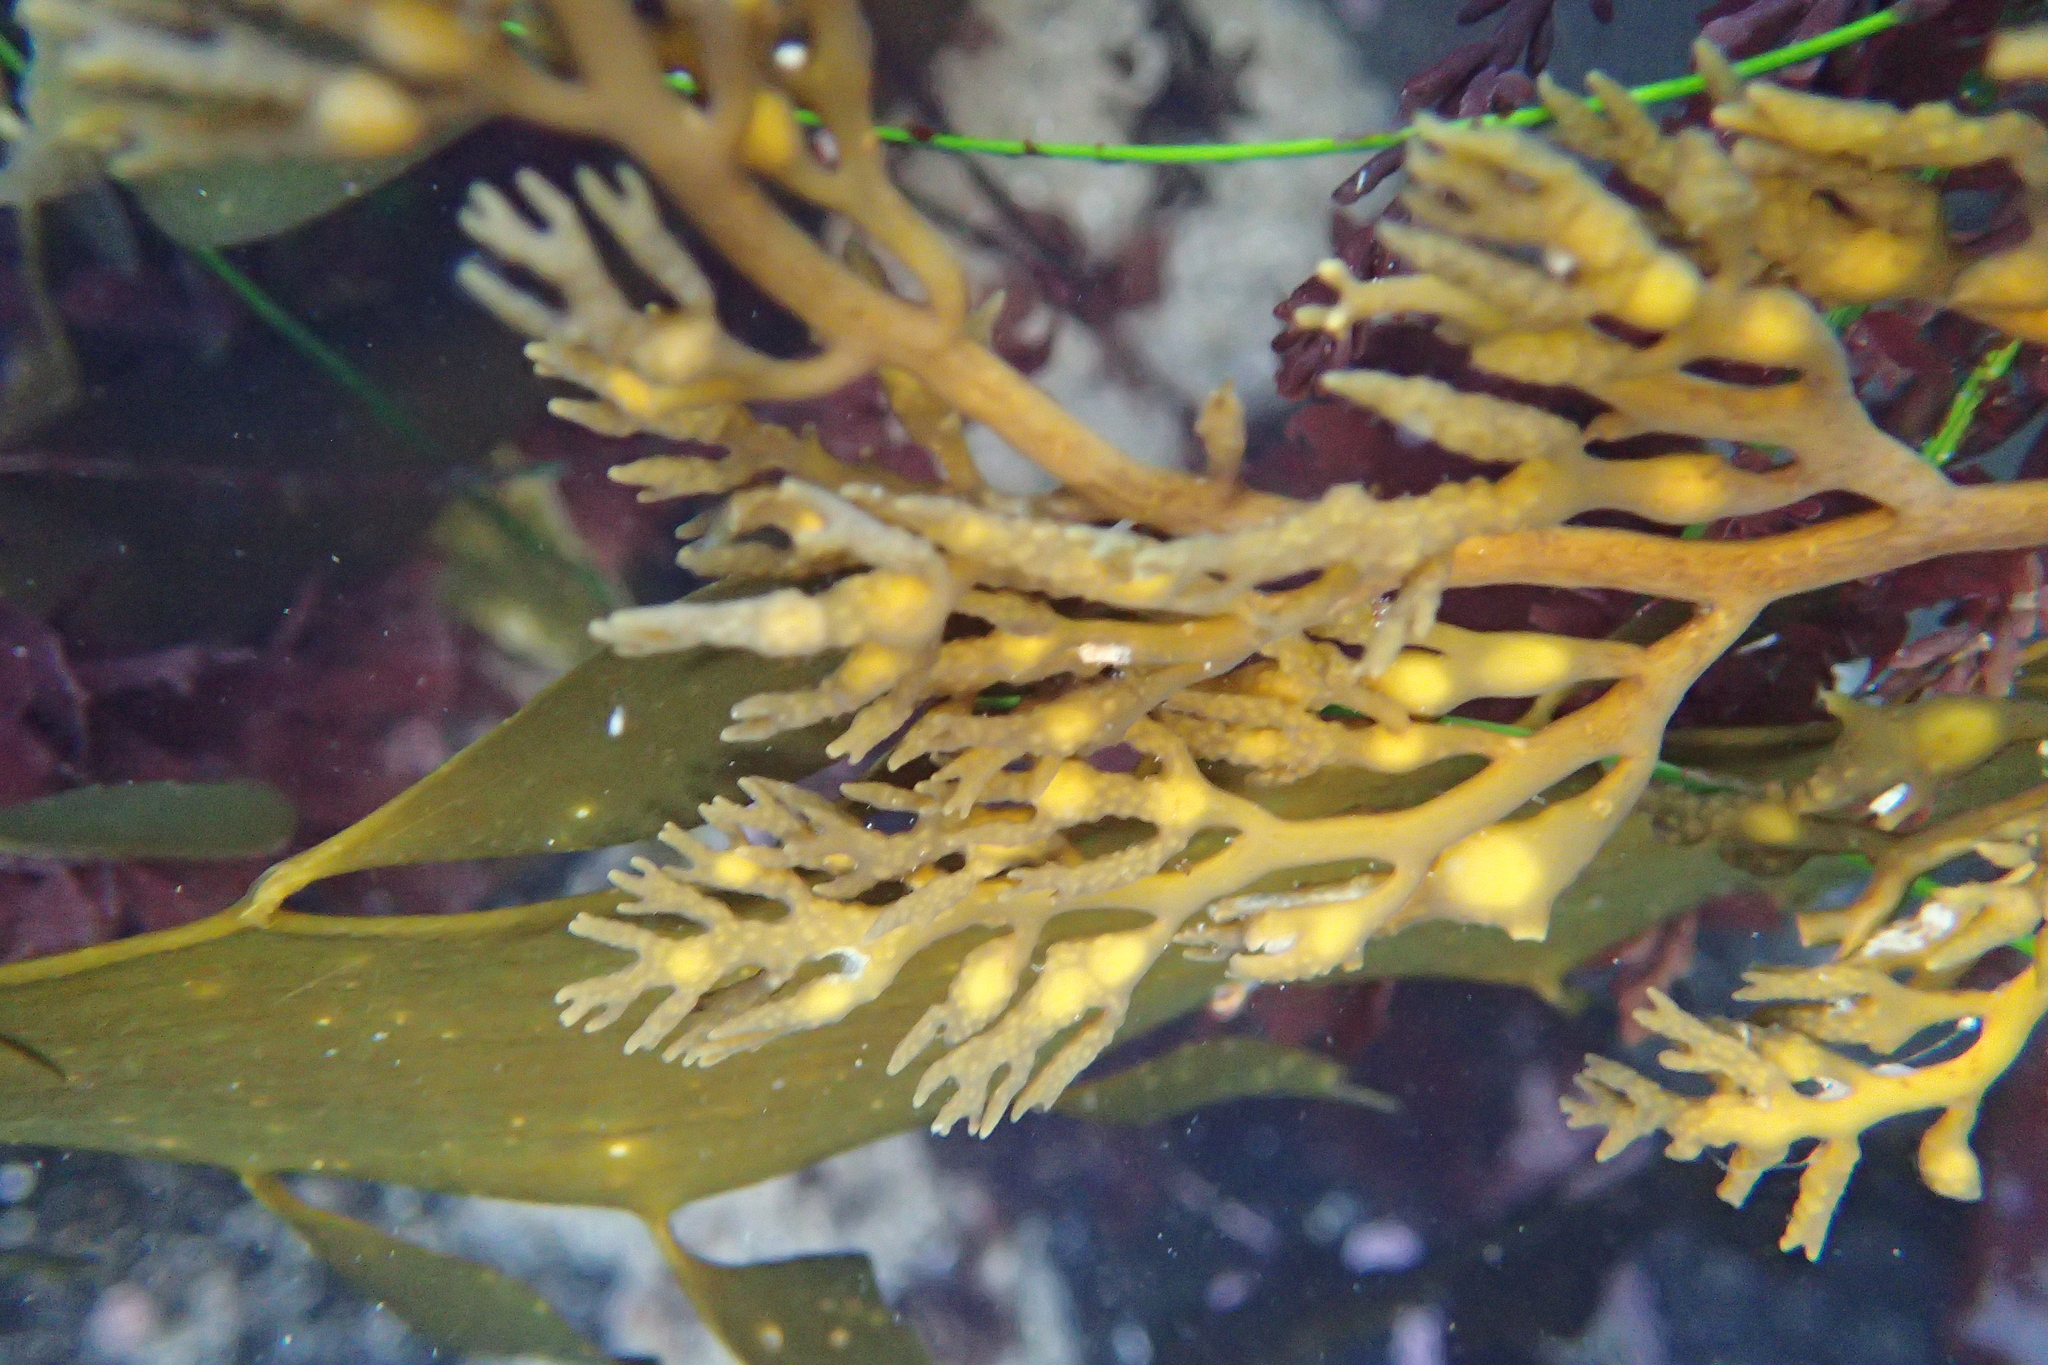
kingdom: Chromista
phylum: Ochrophyta
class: Phaeophyceae
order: Fucales
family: Sargassaceae
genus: Stephanocystis
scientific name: Stephanocystis
